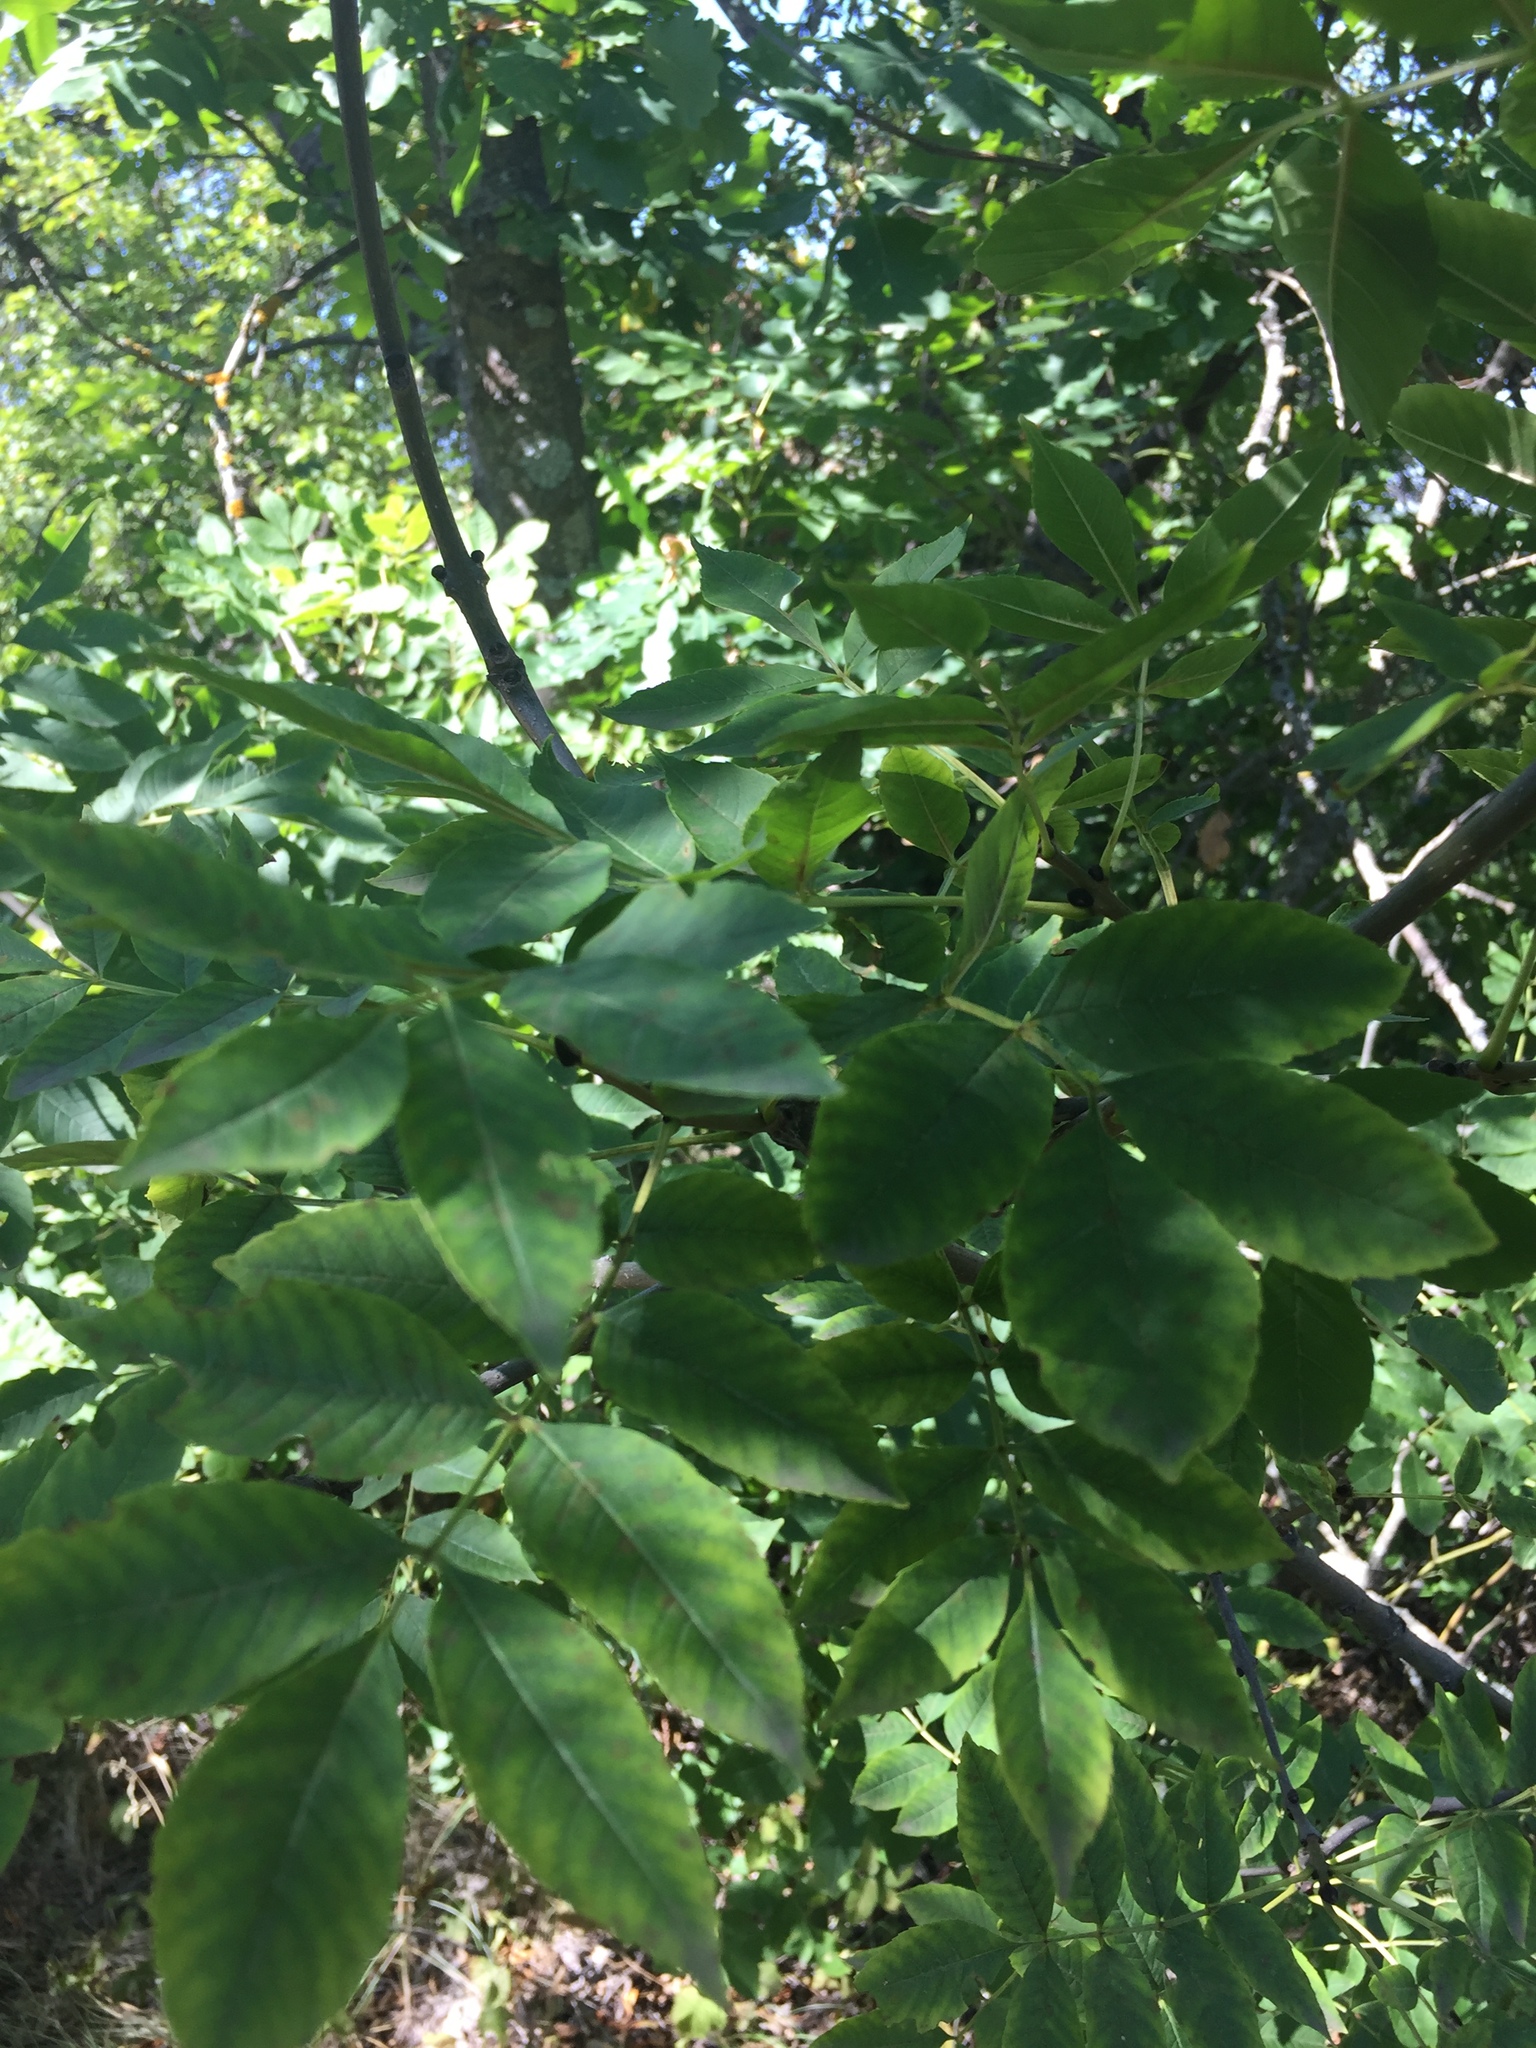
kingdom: Plantae
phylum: Tracheophyta
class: Magnoliopsida
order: Lamiales
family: Oleaceae
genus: Fraxinus
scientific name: Fraxinus excelsior
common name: European ash
